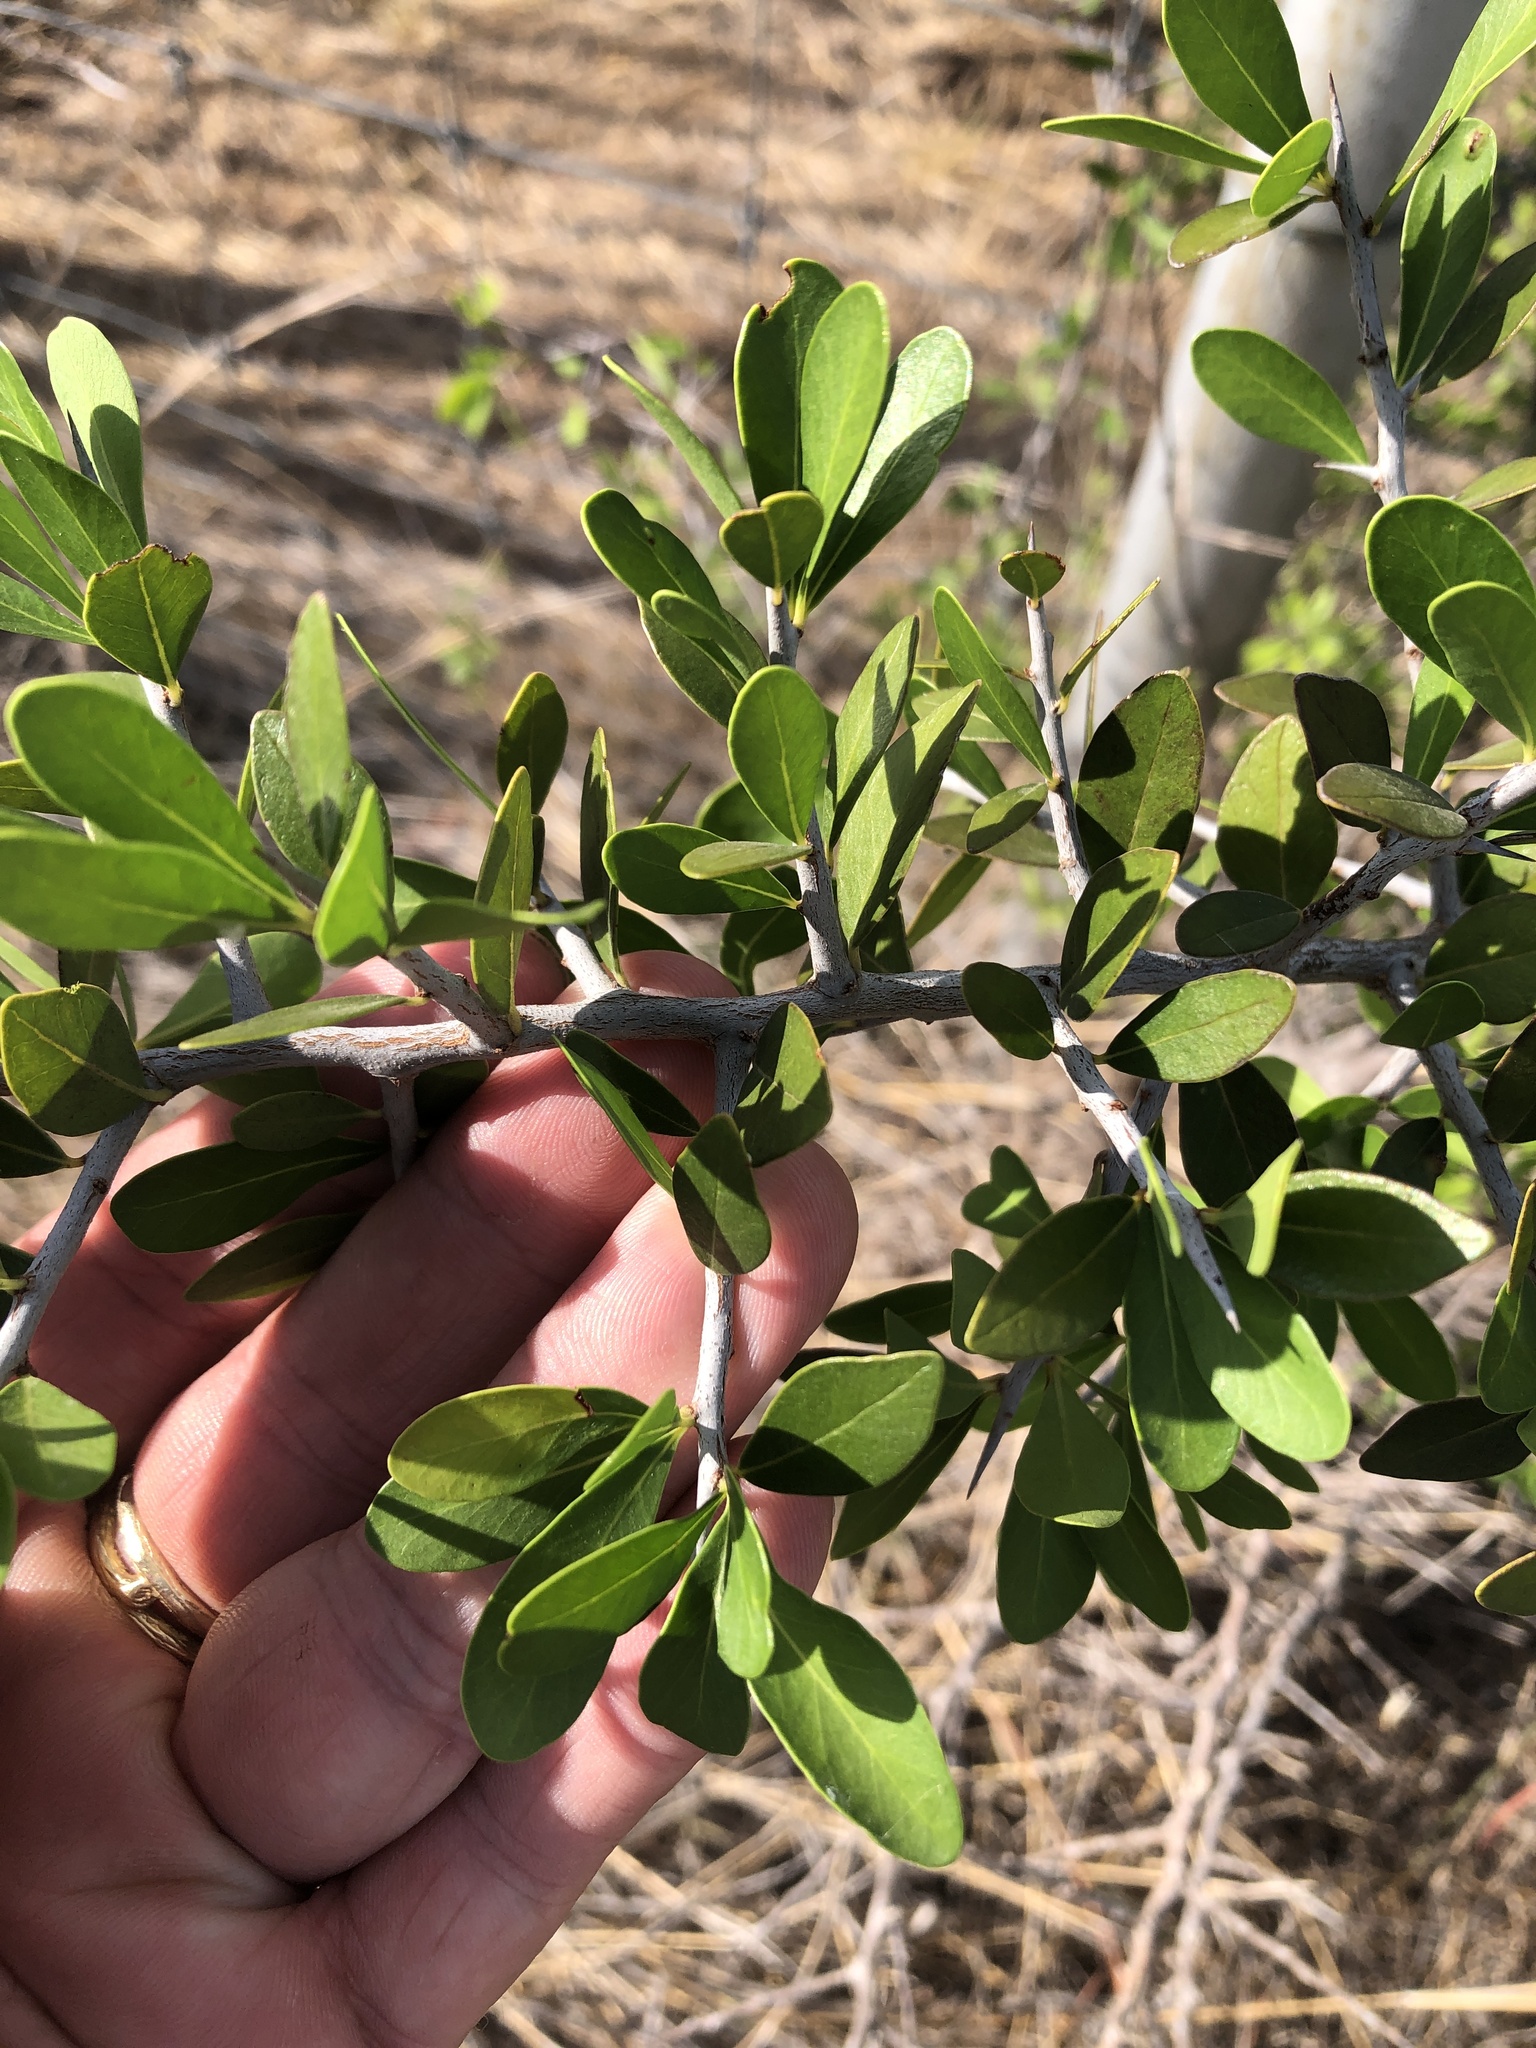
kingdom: Plantae
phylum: Tracheophyta
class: Magnoliopsida
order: Ericales
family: Sapotaceae
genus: Sideroxylon
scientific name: Sideroxylon celastrinum
